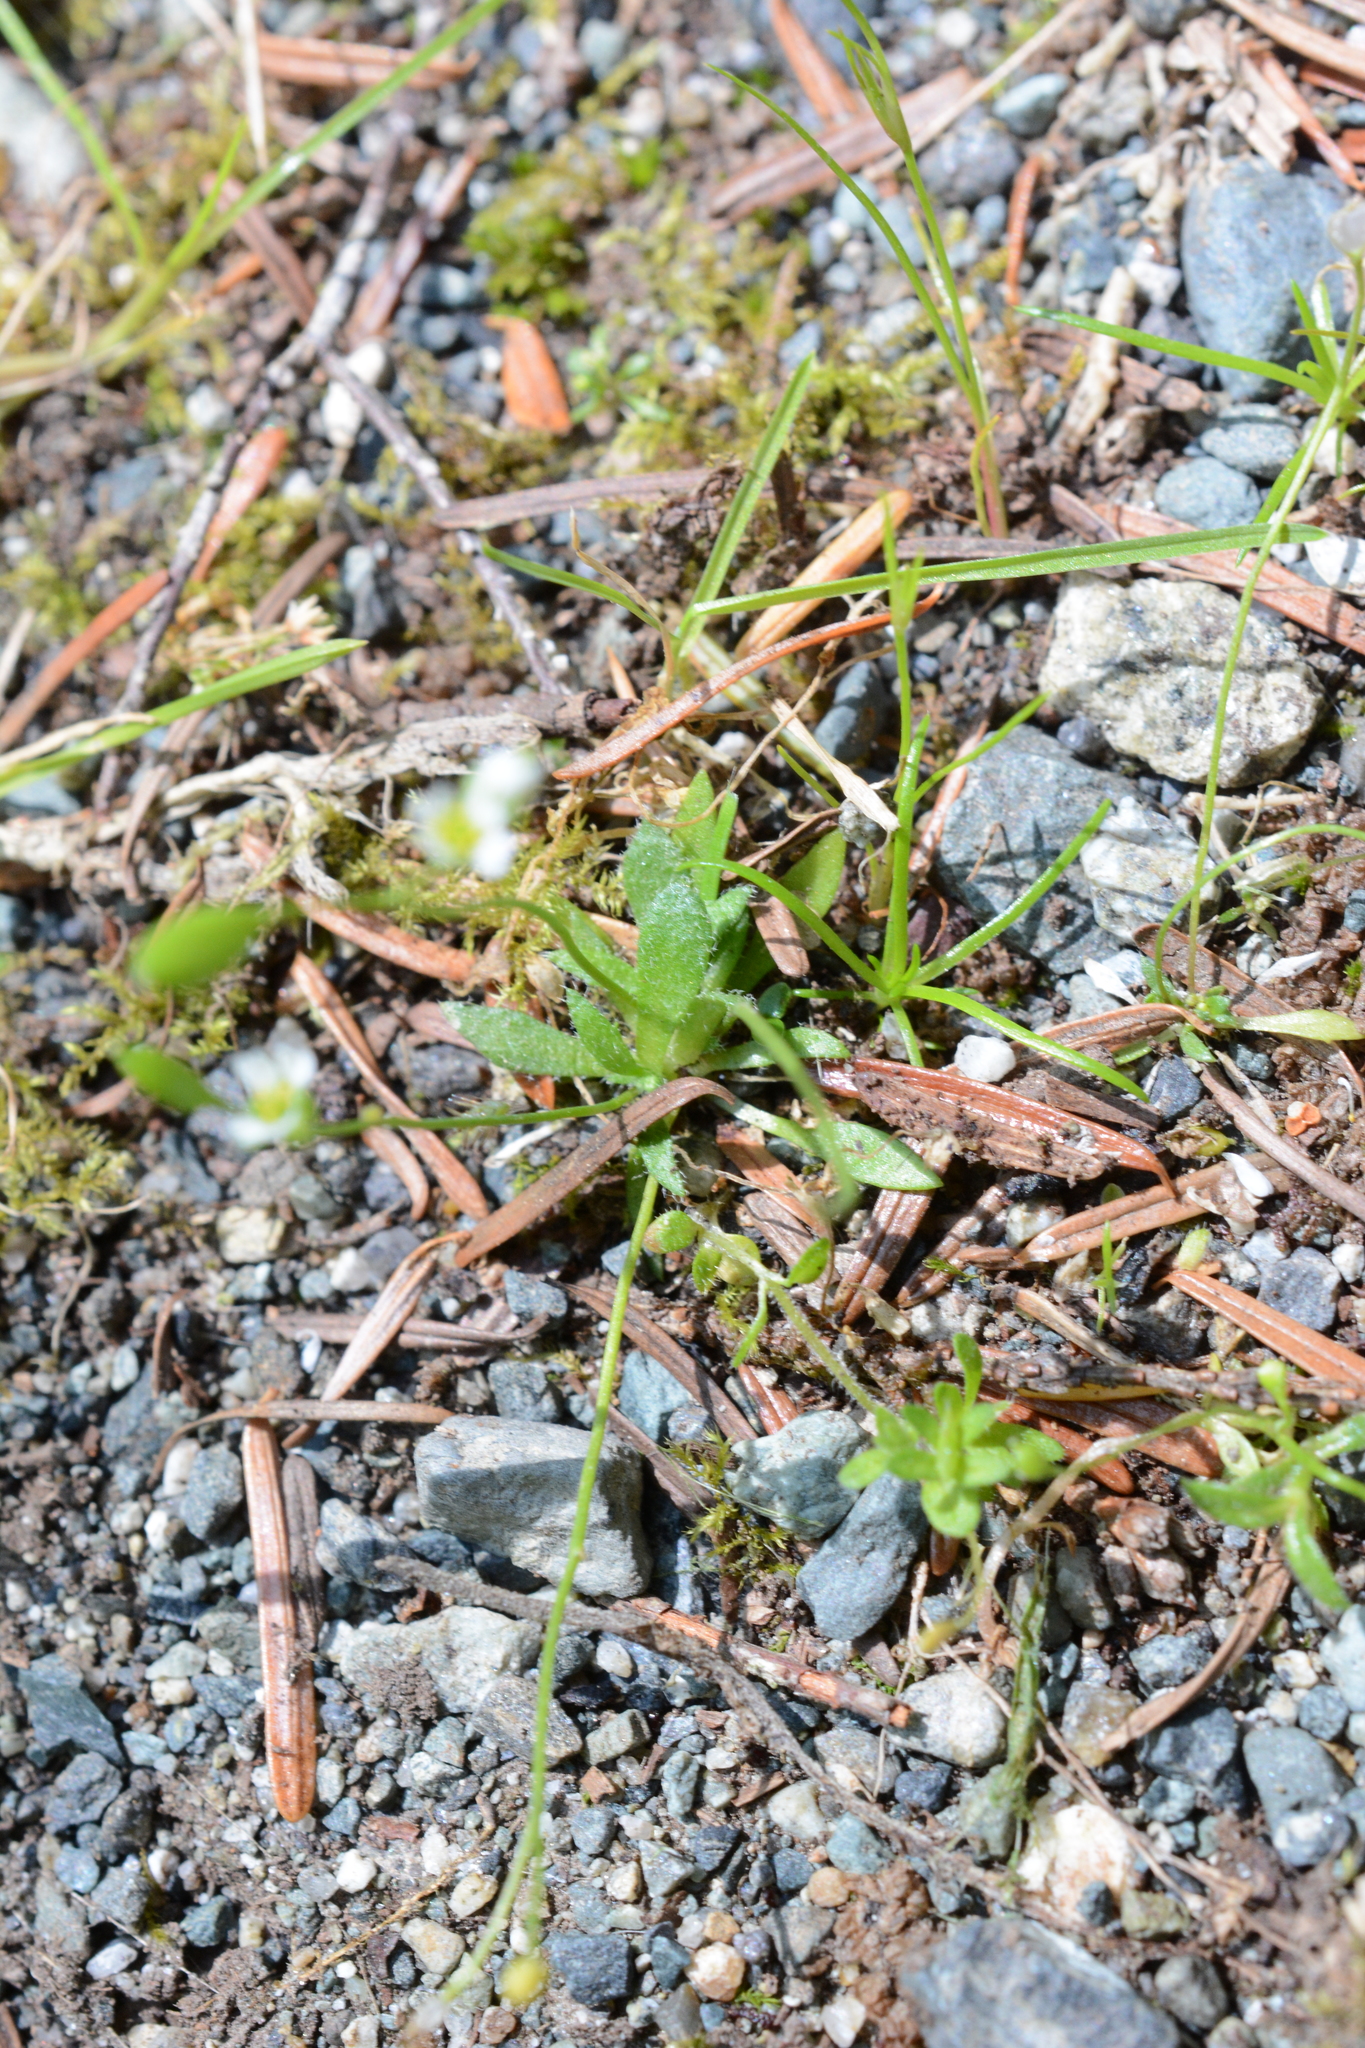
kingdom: Plantae
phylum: Tracheophyta
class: Magnoliopsida
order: Brassicales
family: Brassicaceae
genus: Draba
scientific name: Draba verna
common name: Spring draba
